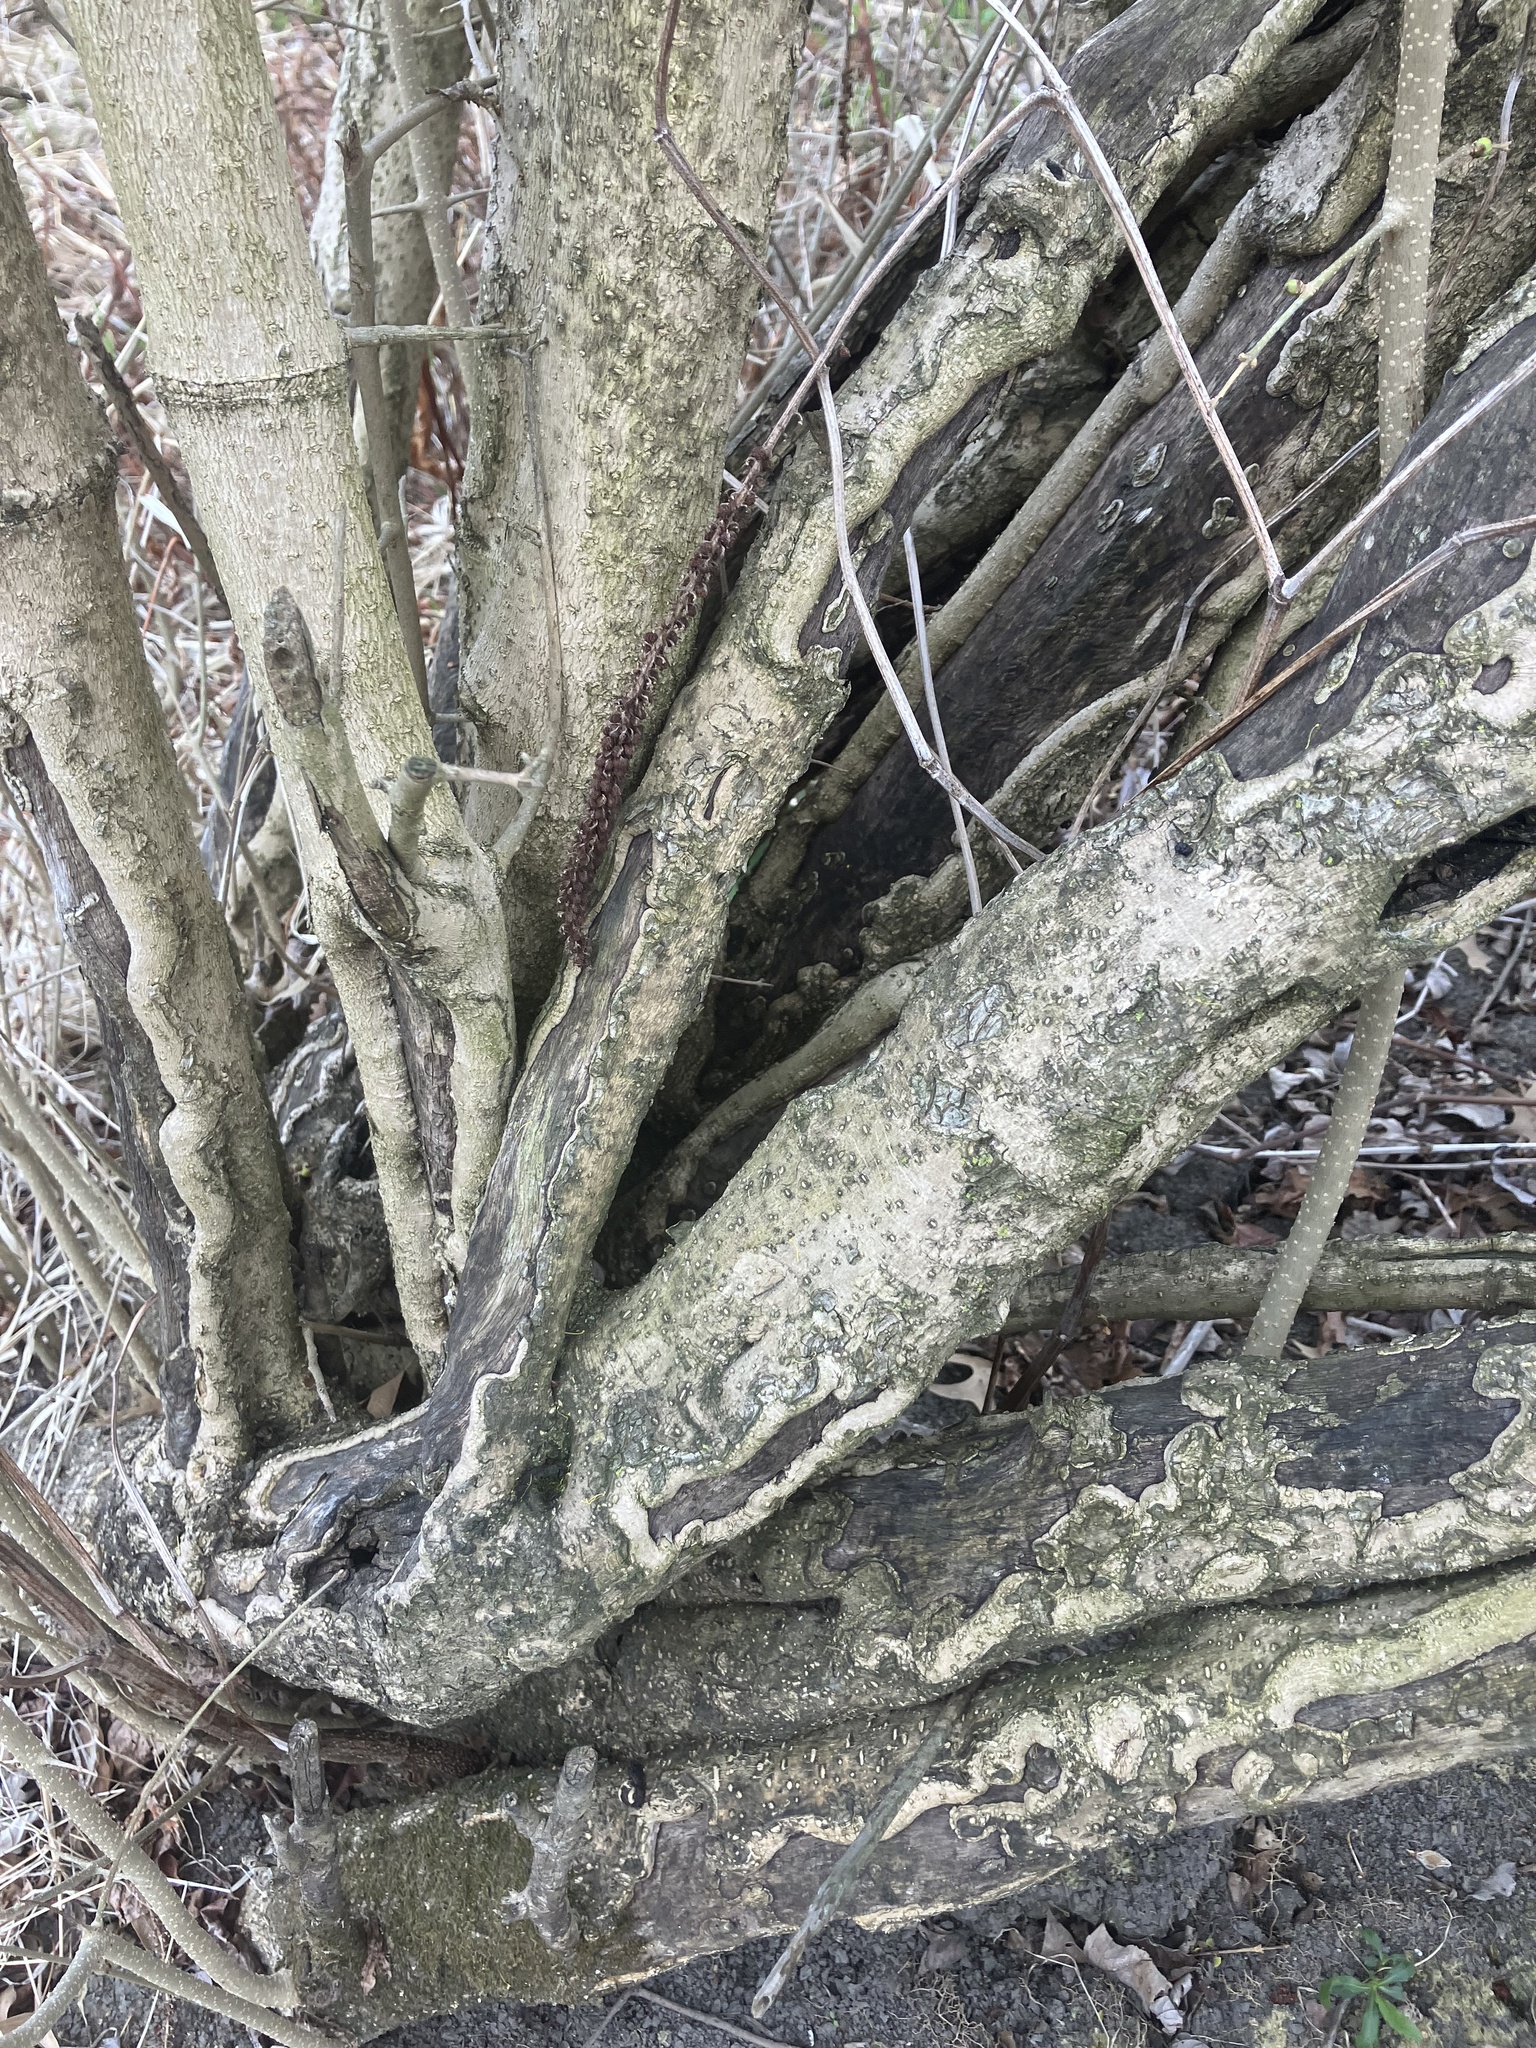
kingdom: Plantae
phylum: Tracheophyta
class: Magnoliopsida
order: Lamiales
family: Oleaceae
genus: Forestiera
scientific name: Forestiera acuminata
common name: Swamp-privet
